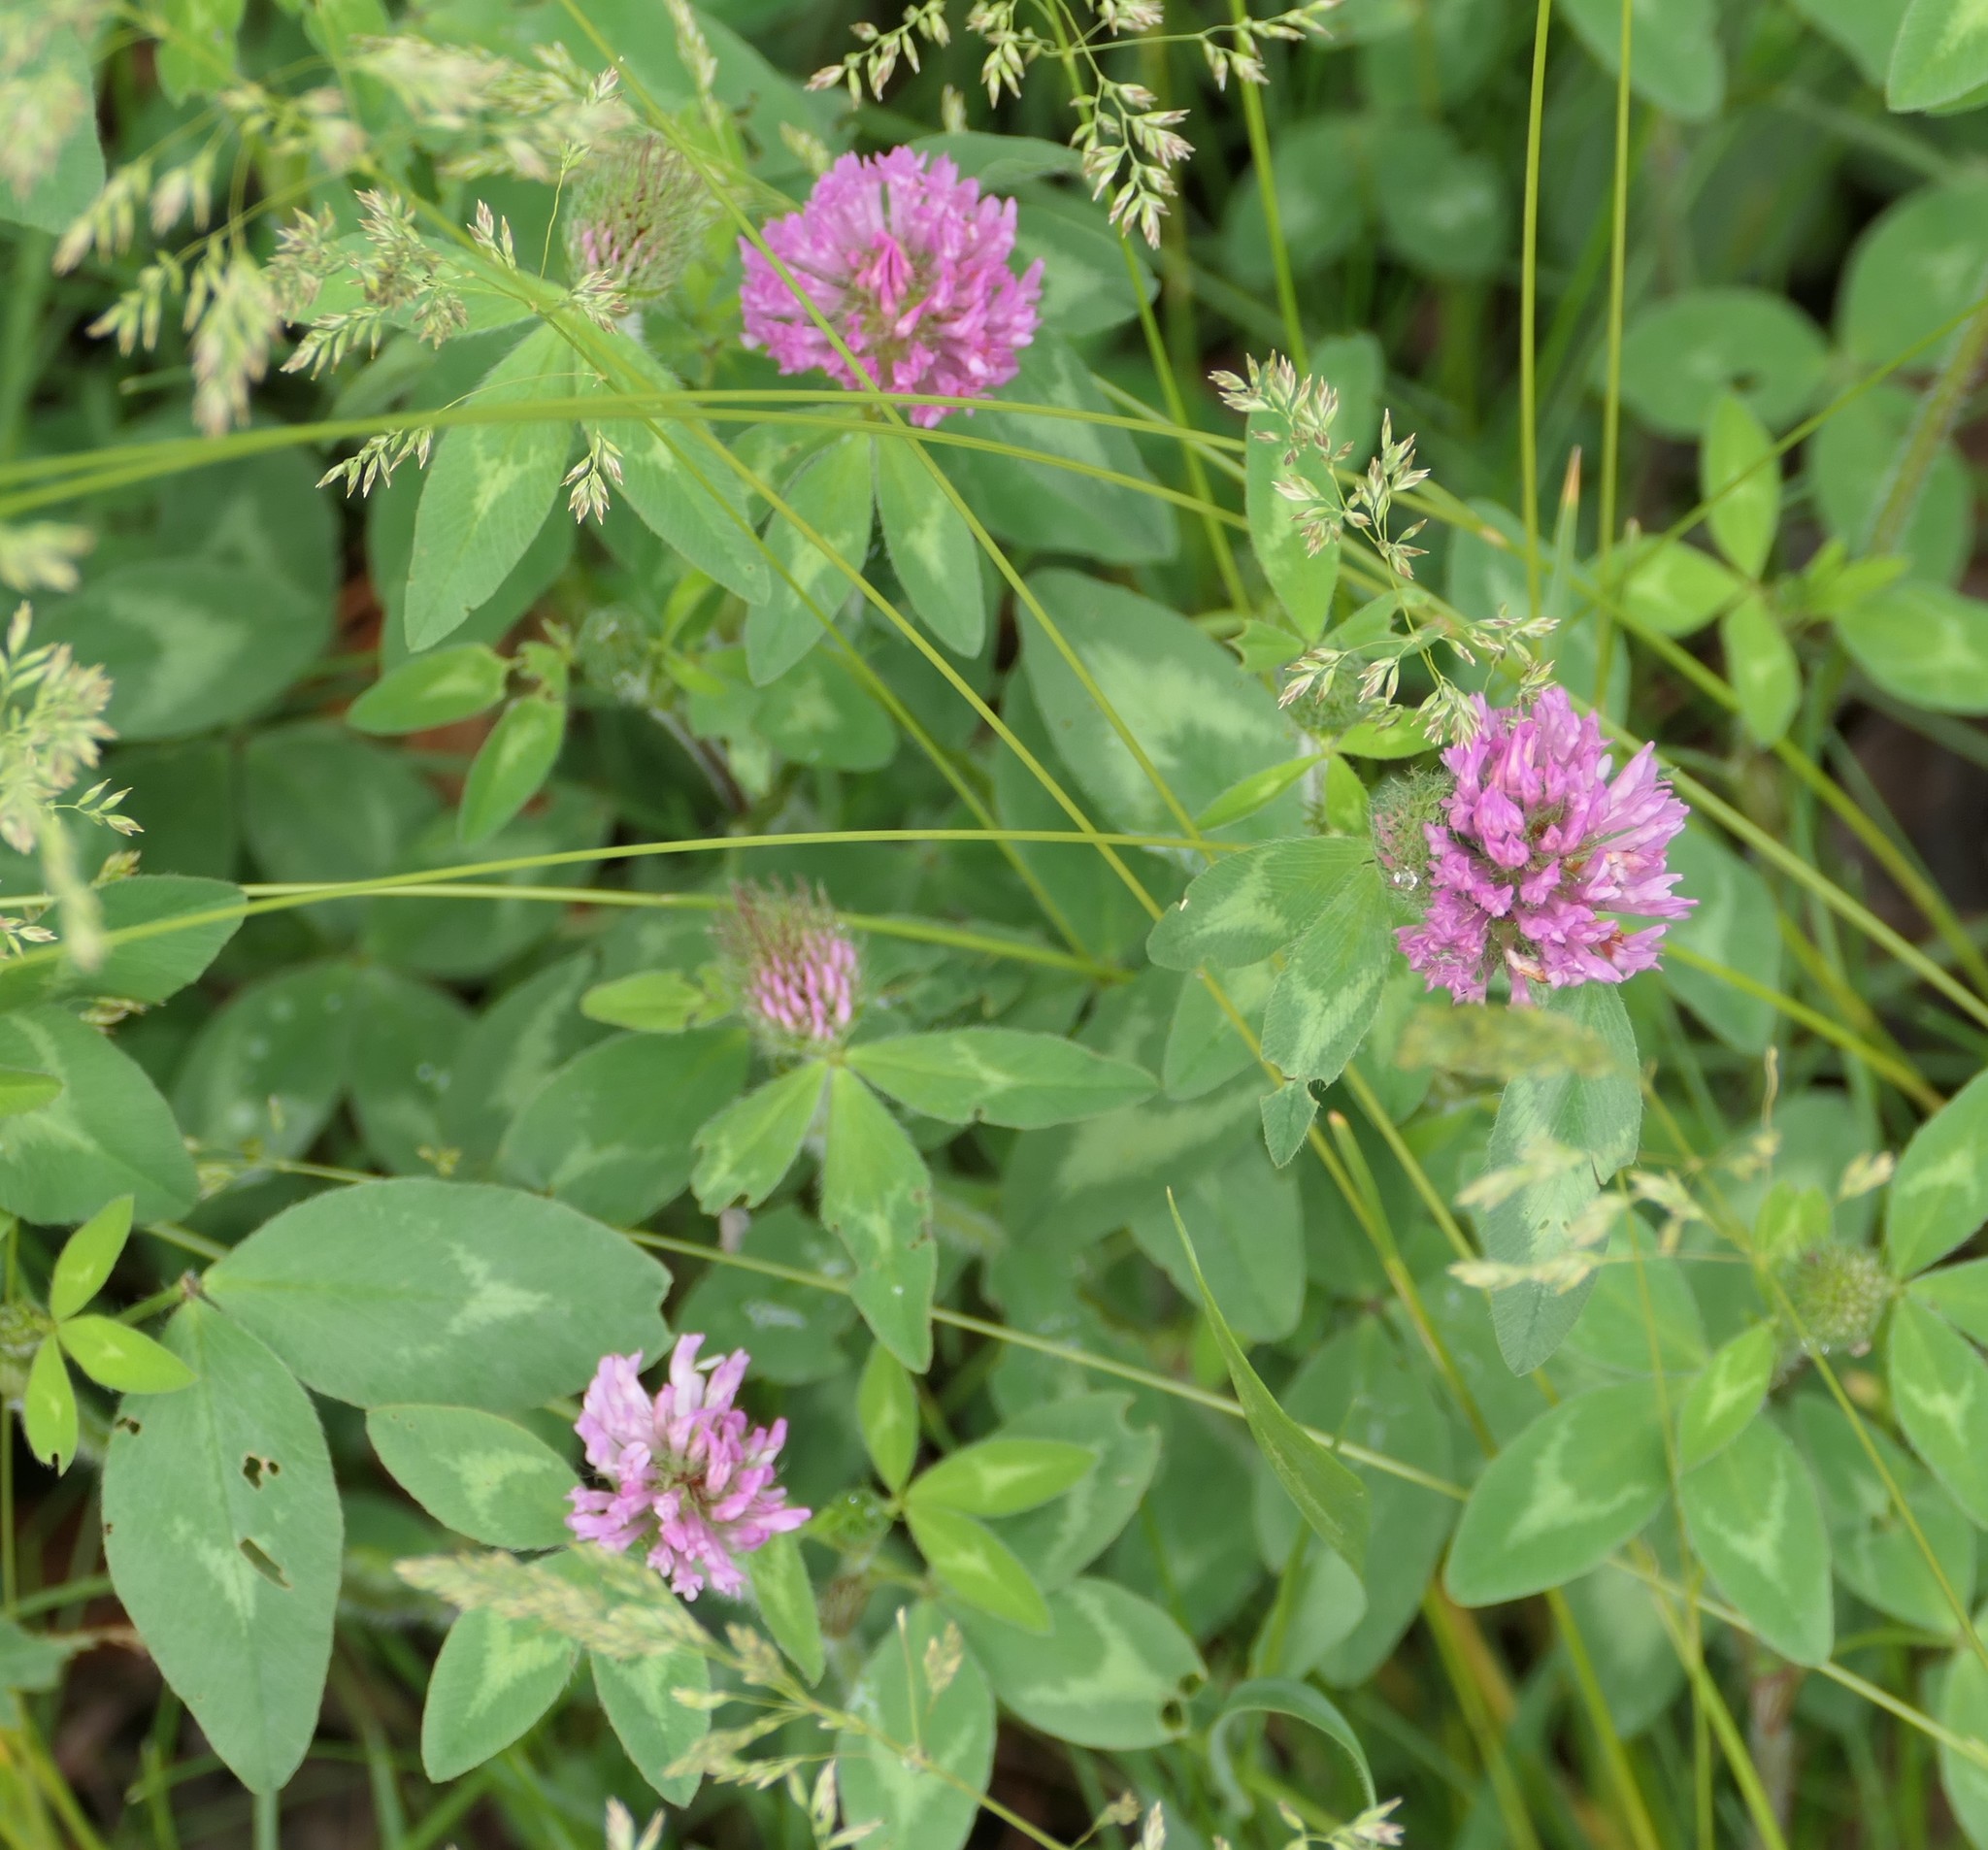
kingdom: Plantae
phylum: Tracheophyta
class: Magnoliopsida
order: Fabales
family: Fabaceae
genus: Trifolium
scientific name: Trifolium pratense
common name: Red clover
